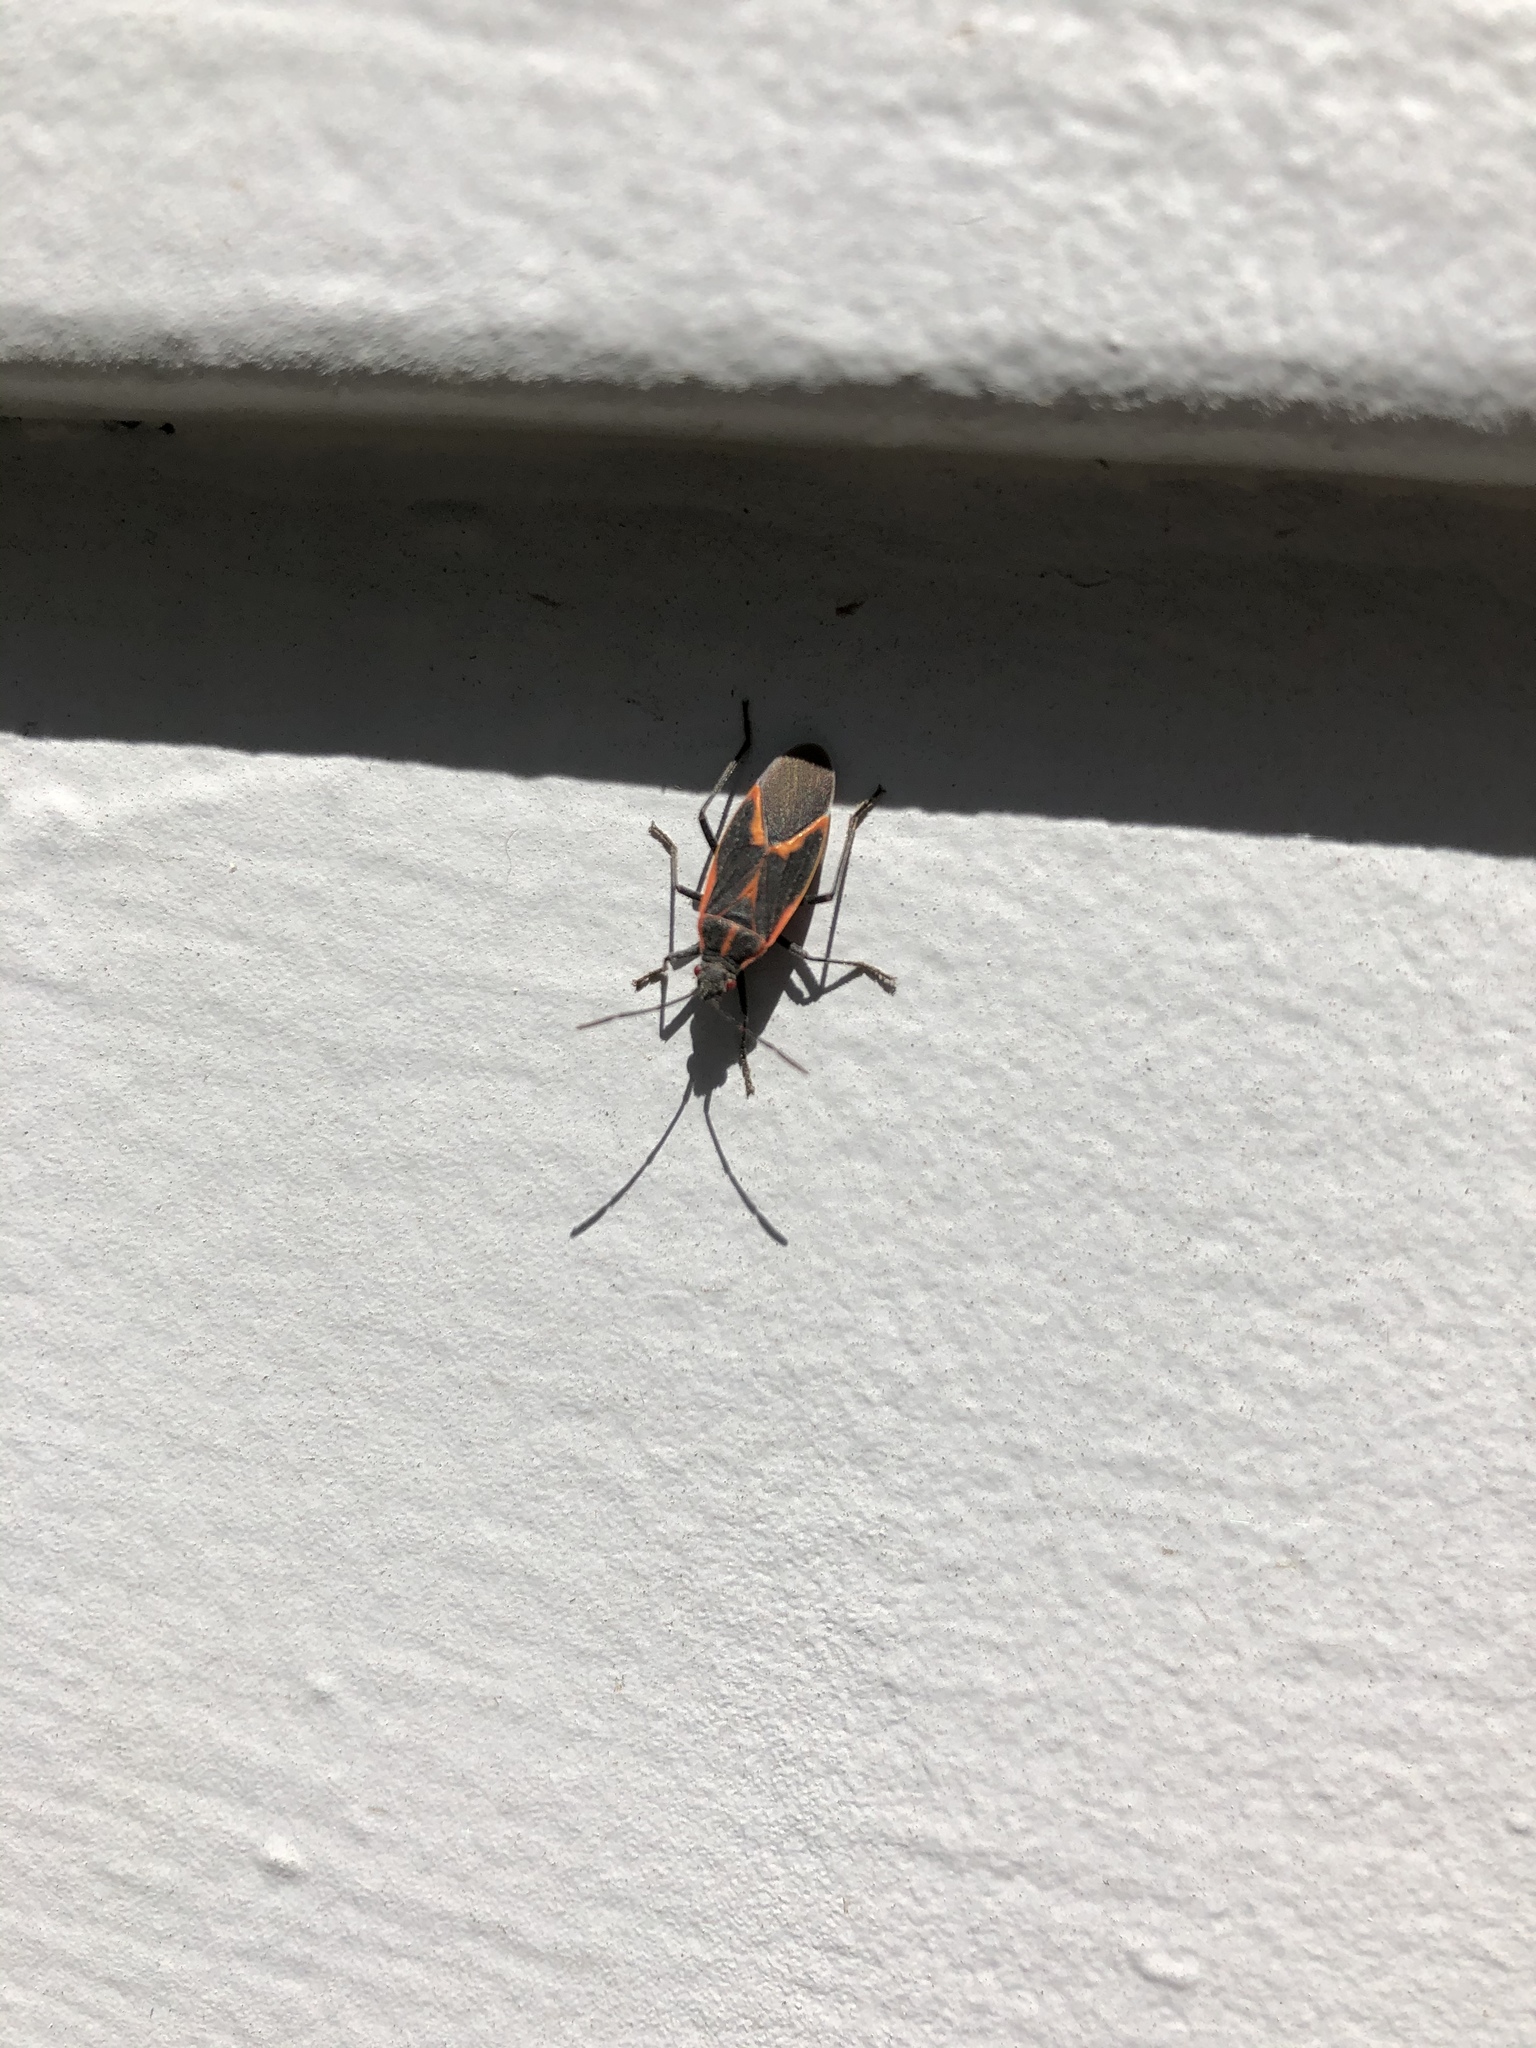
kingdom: Animalia
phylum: Arthropoda
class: Insecta
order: Hemiptera
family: Rhopalidae
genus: Boisea
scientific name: Boisea trivittata
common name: Boxelder bug
